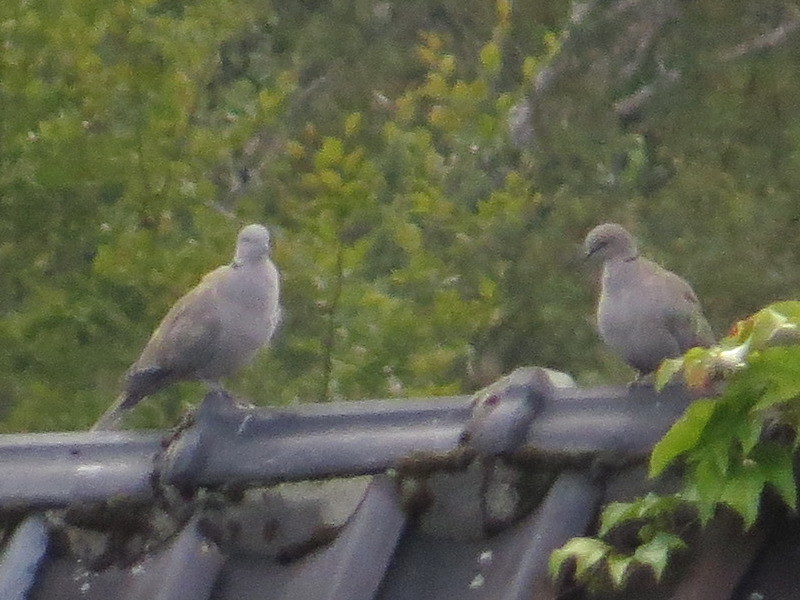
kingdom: Animalia
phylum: Chordata
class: Aves
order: Columbiformes
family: Columbidae
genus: Streptopelia
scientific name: Streptopelia decaocto
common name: Eurasian collared dove
